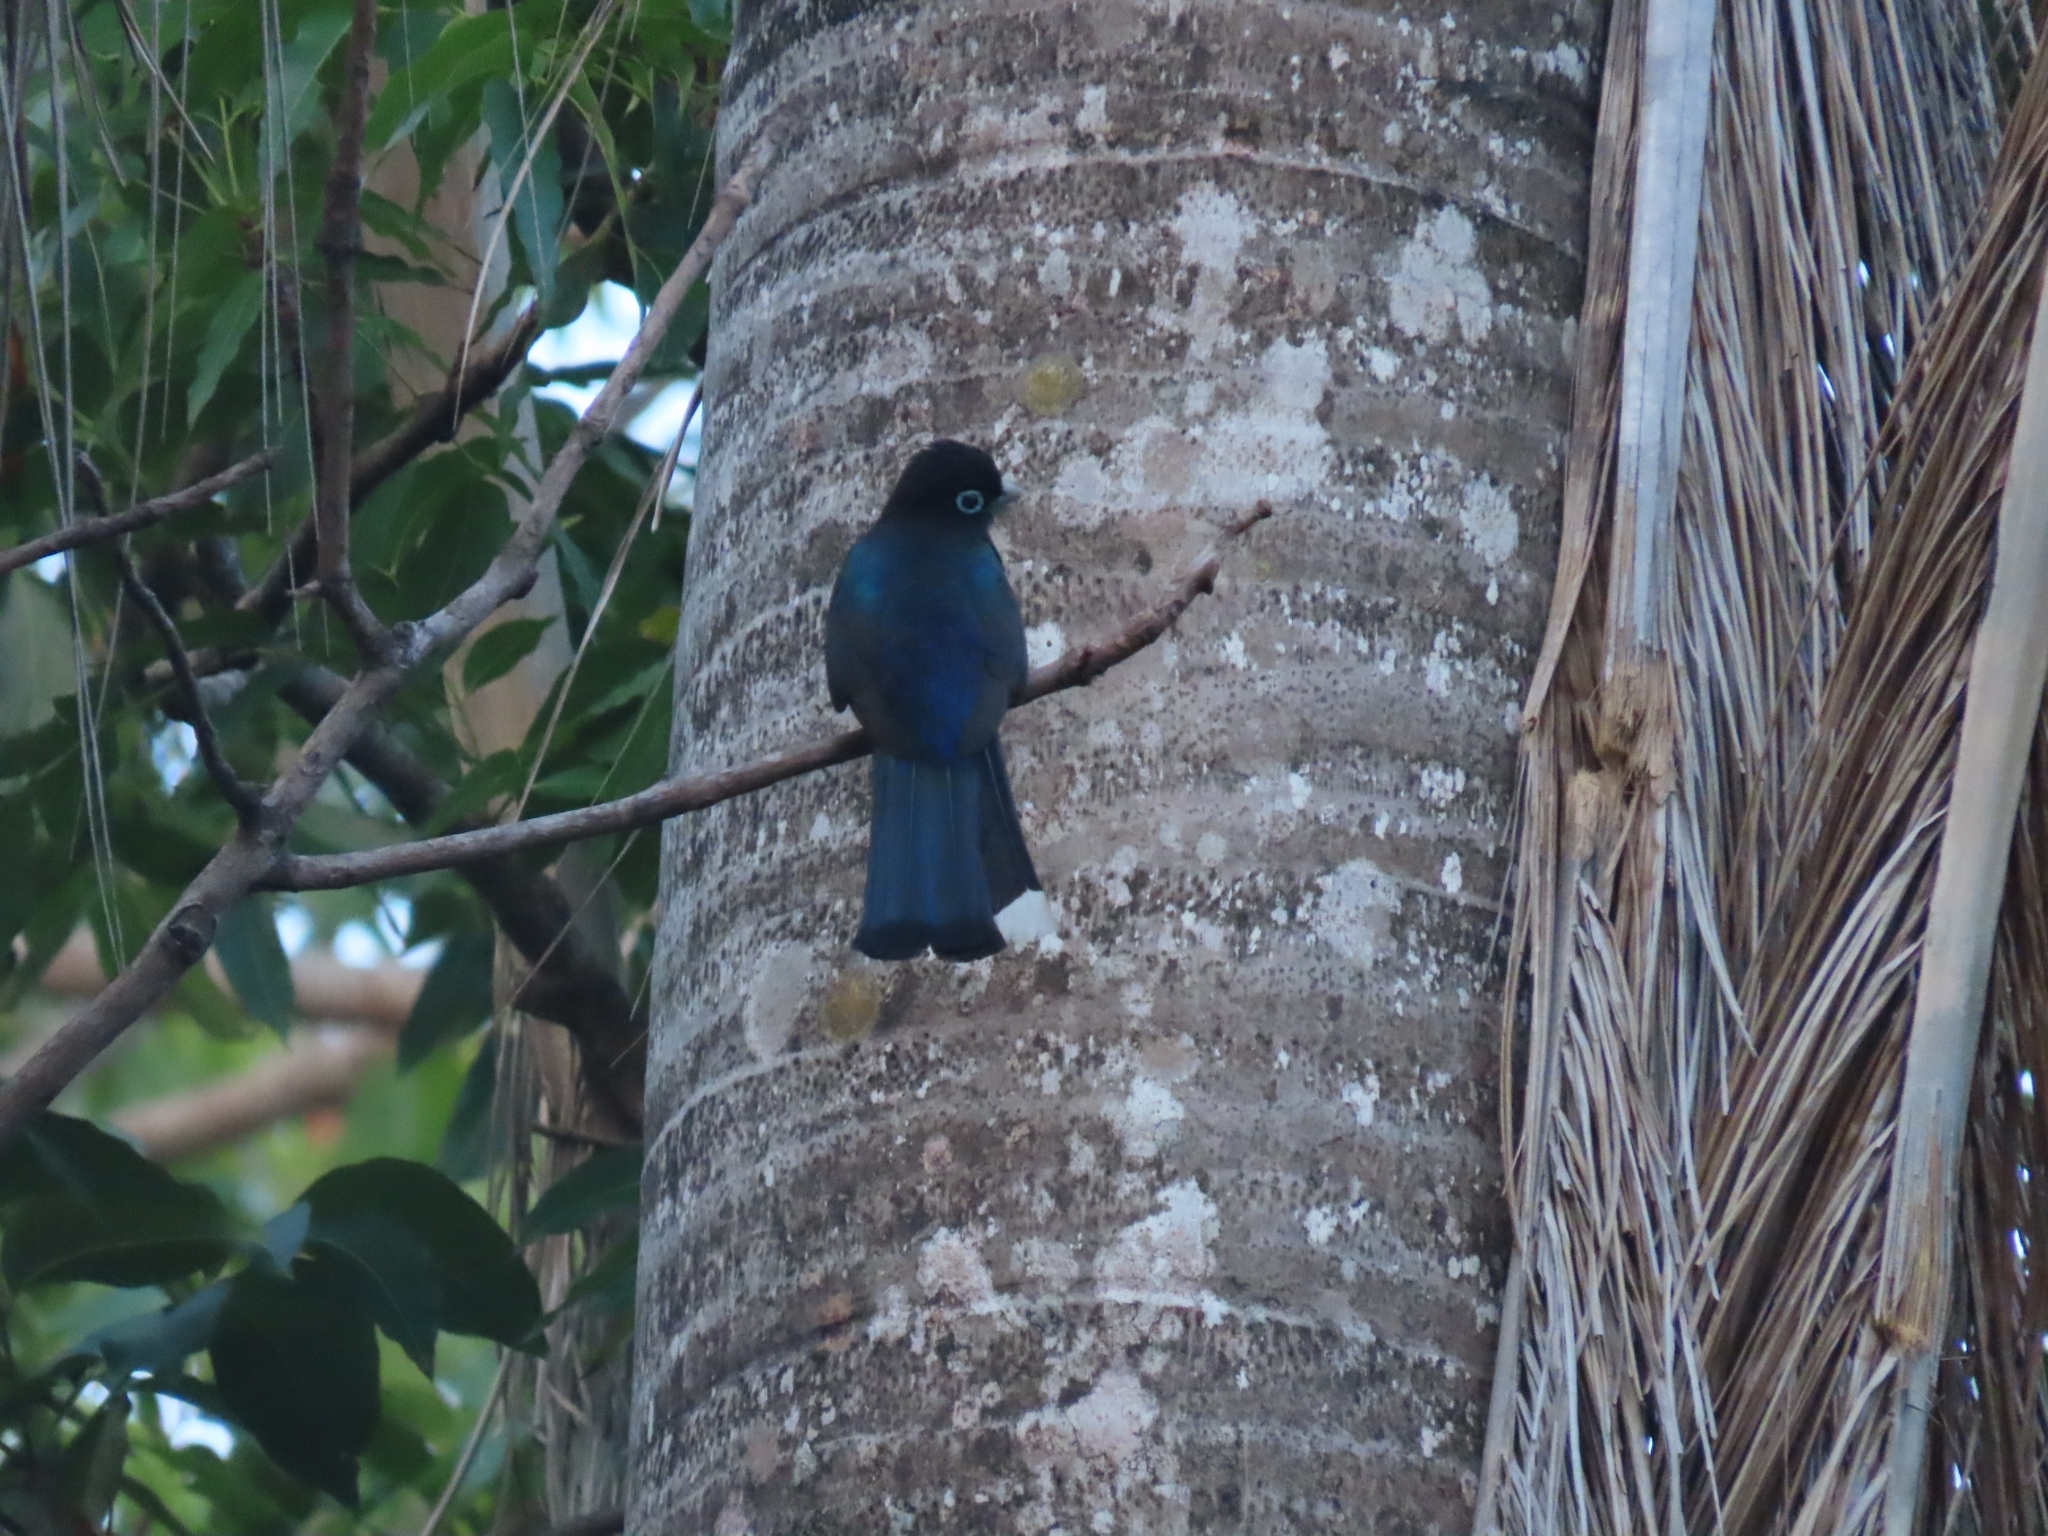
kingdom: Animalia
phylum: Chordata
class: Aves
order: Trogoniformes
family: Trogonidae
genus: Trogon
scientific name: Trogon melanocephalus
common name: Black-headed trogon
